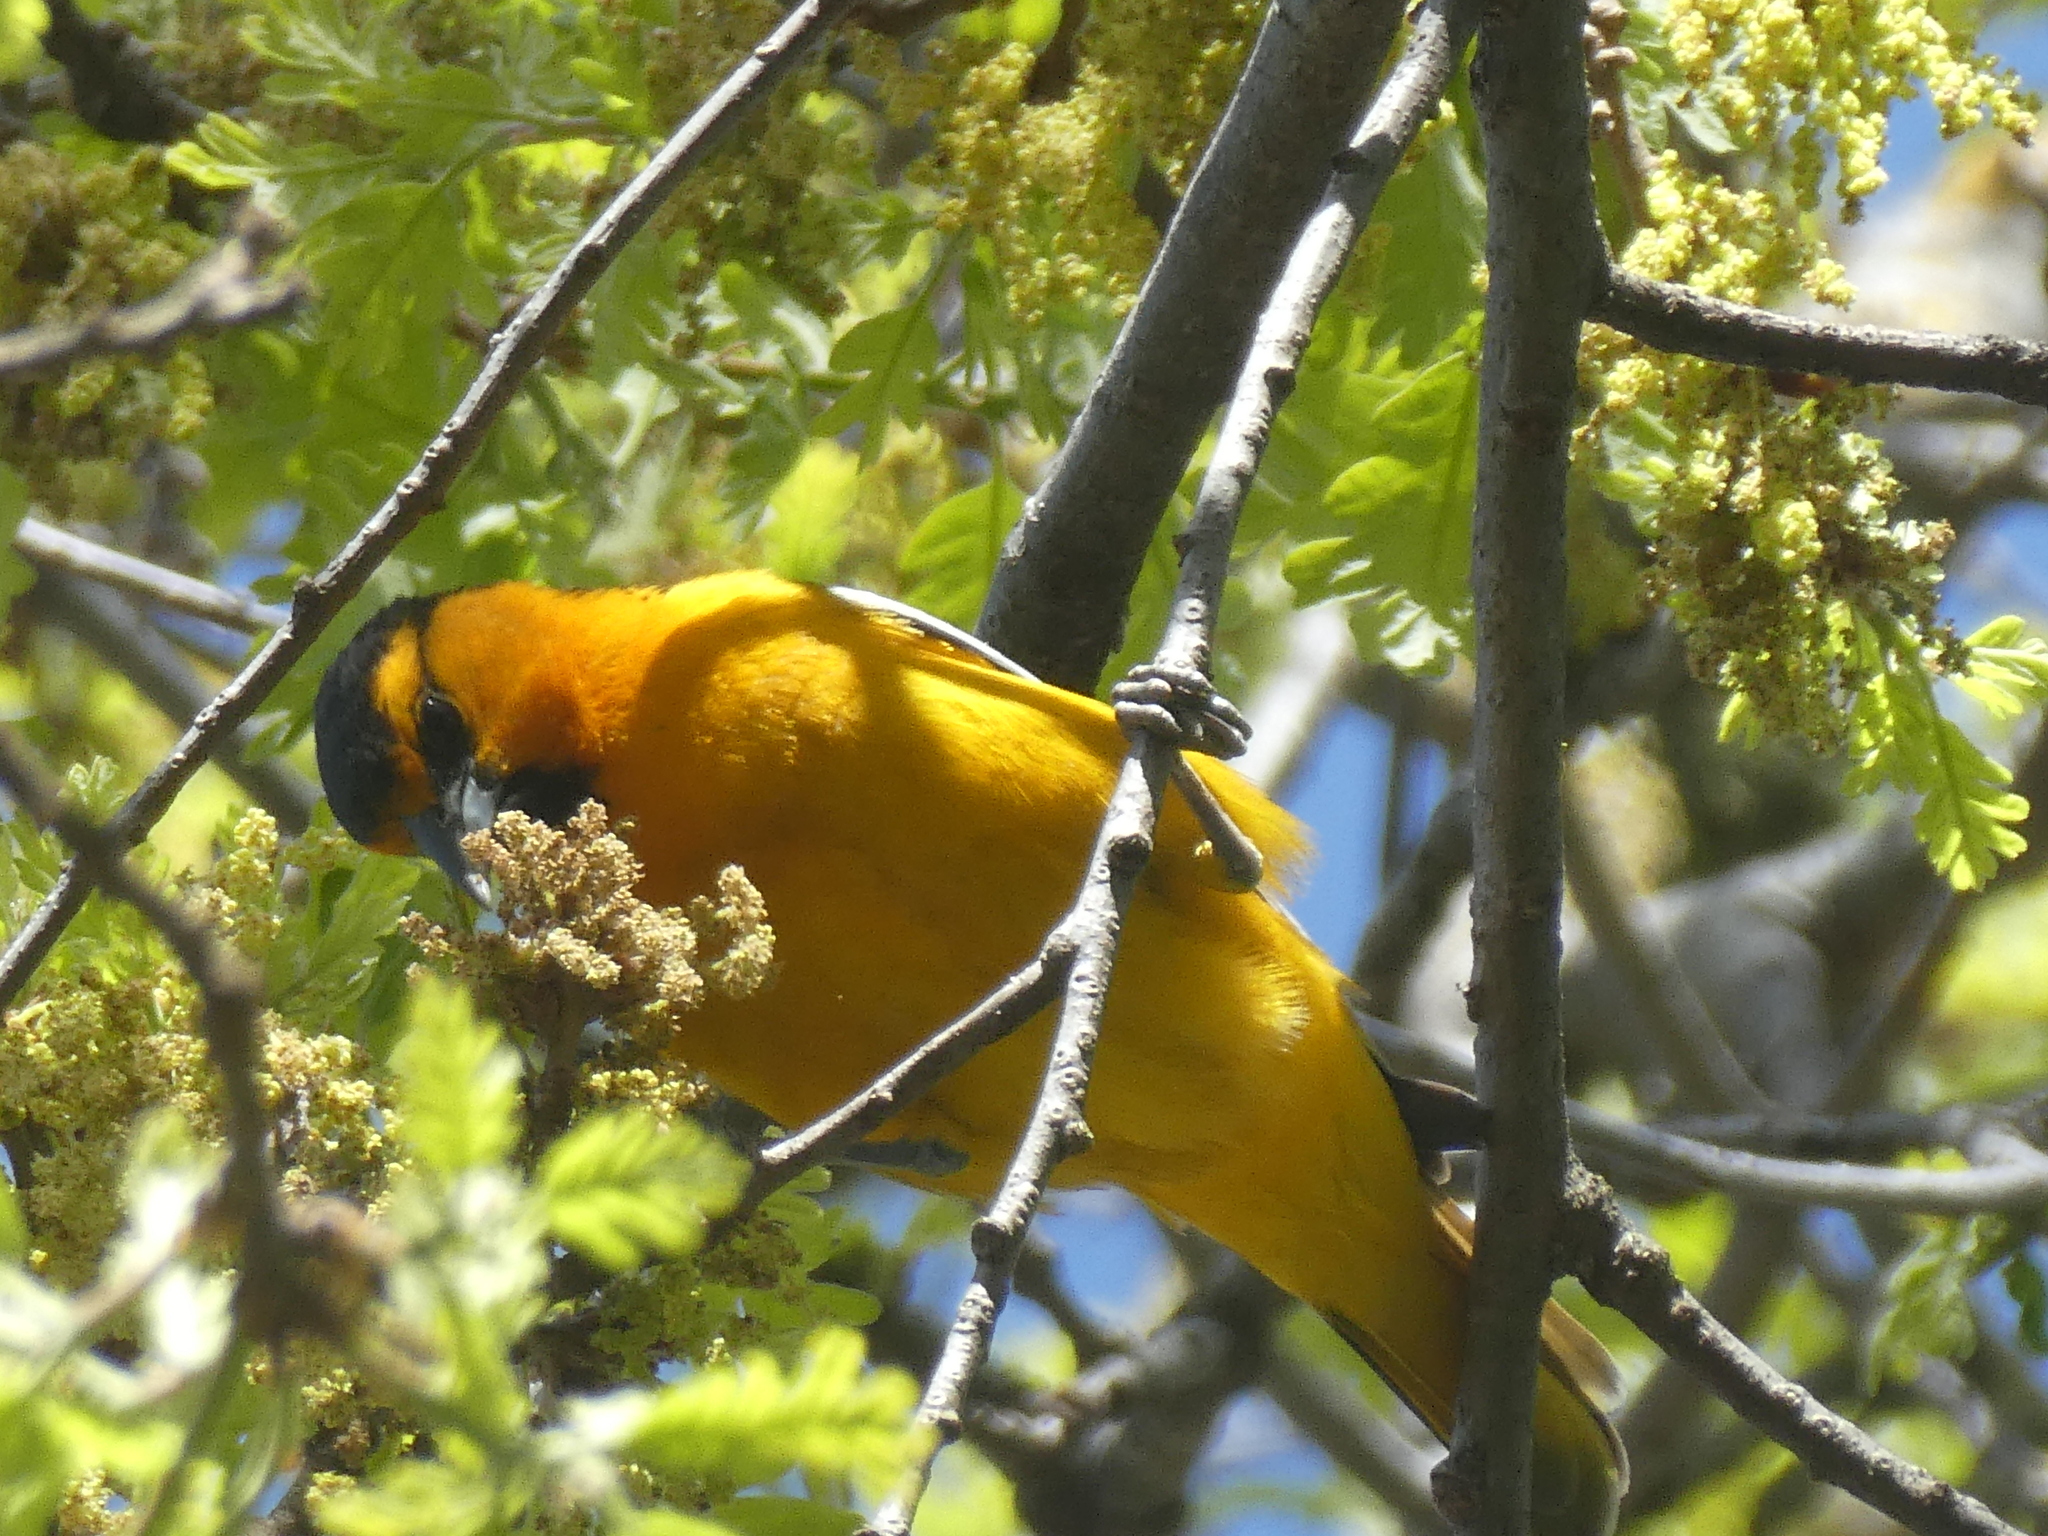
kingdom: Animalia
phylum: Chordata
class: Aves
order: Passeriformes
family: Icteridae
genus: Icterus
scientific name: Icterus bullockii
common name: Bullock's oriole
